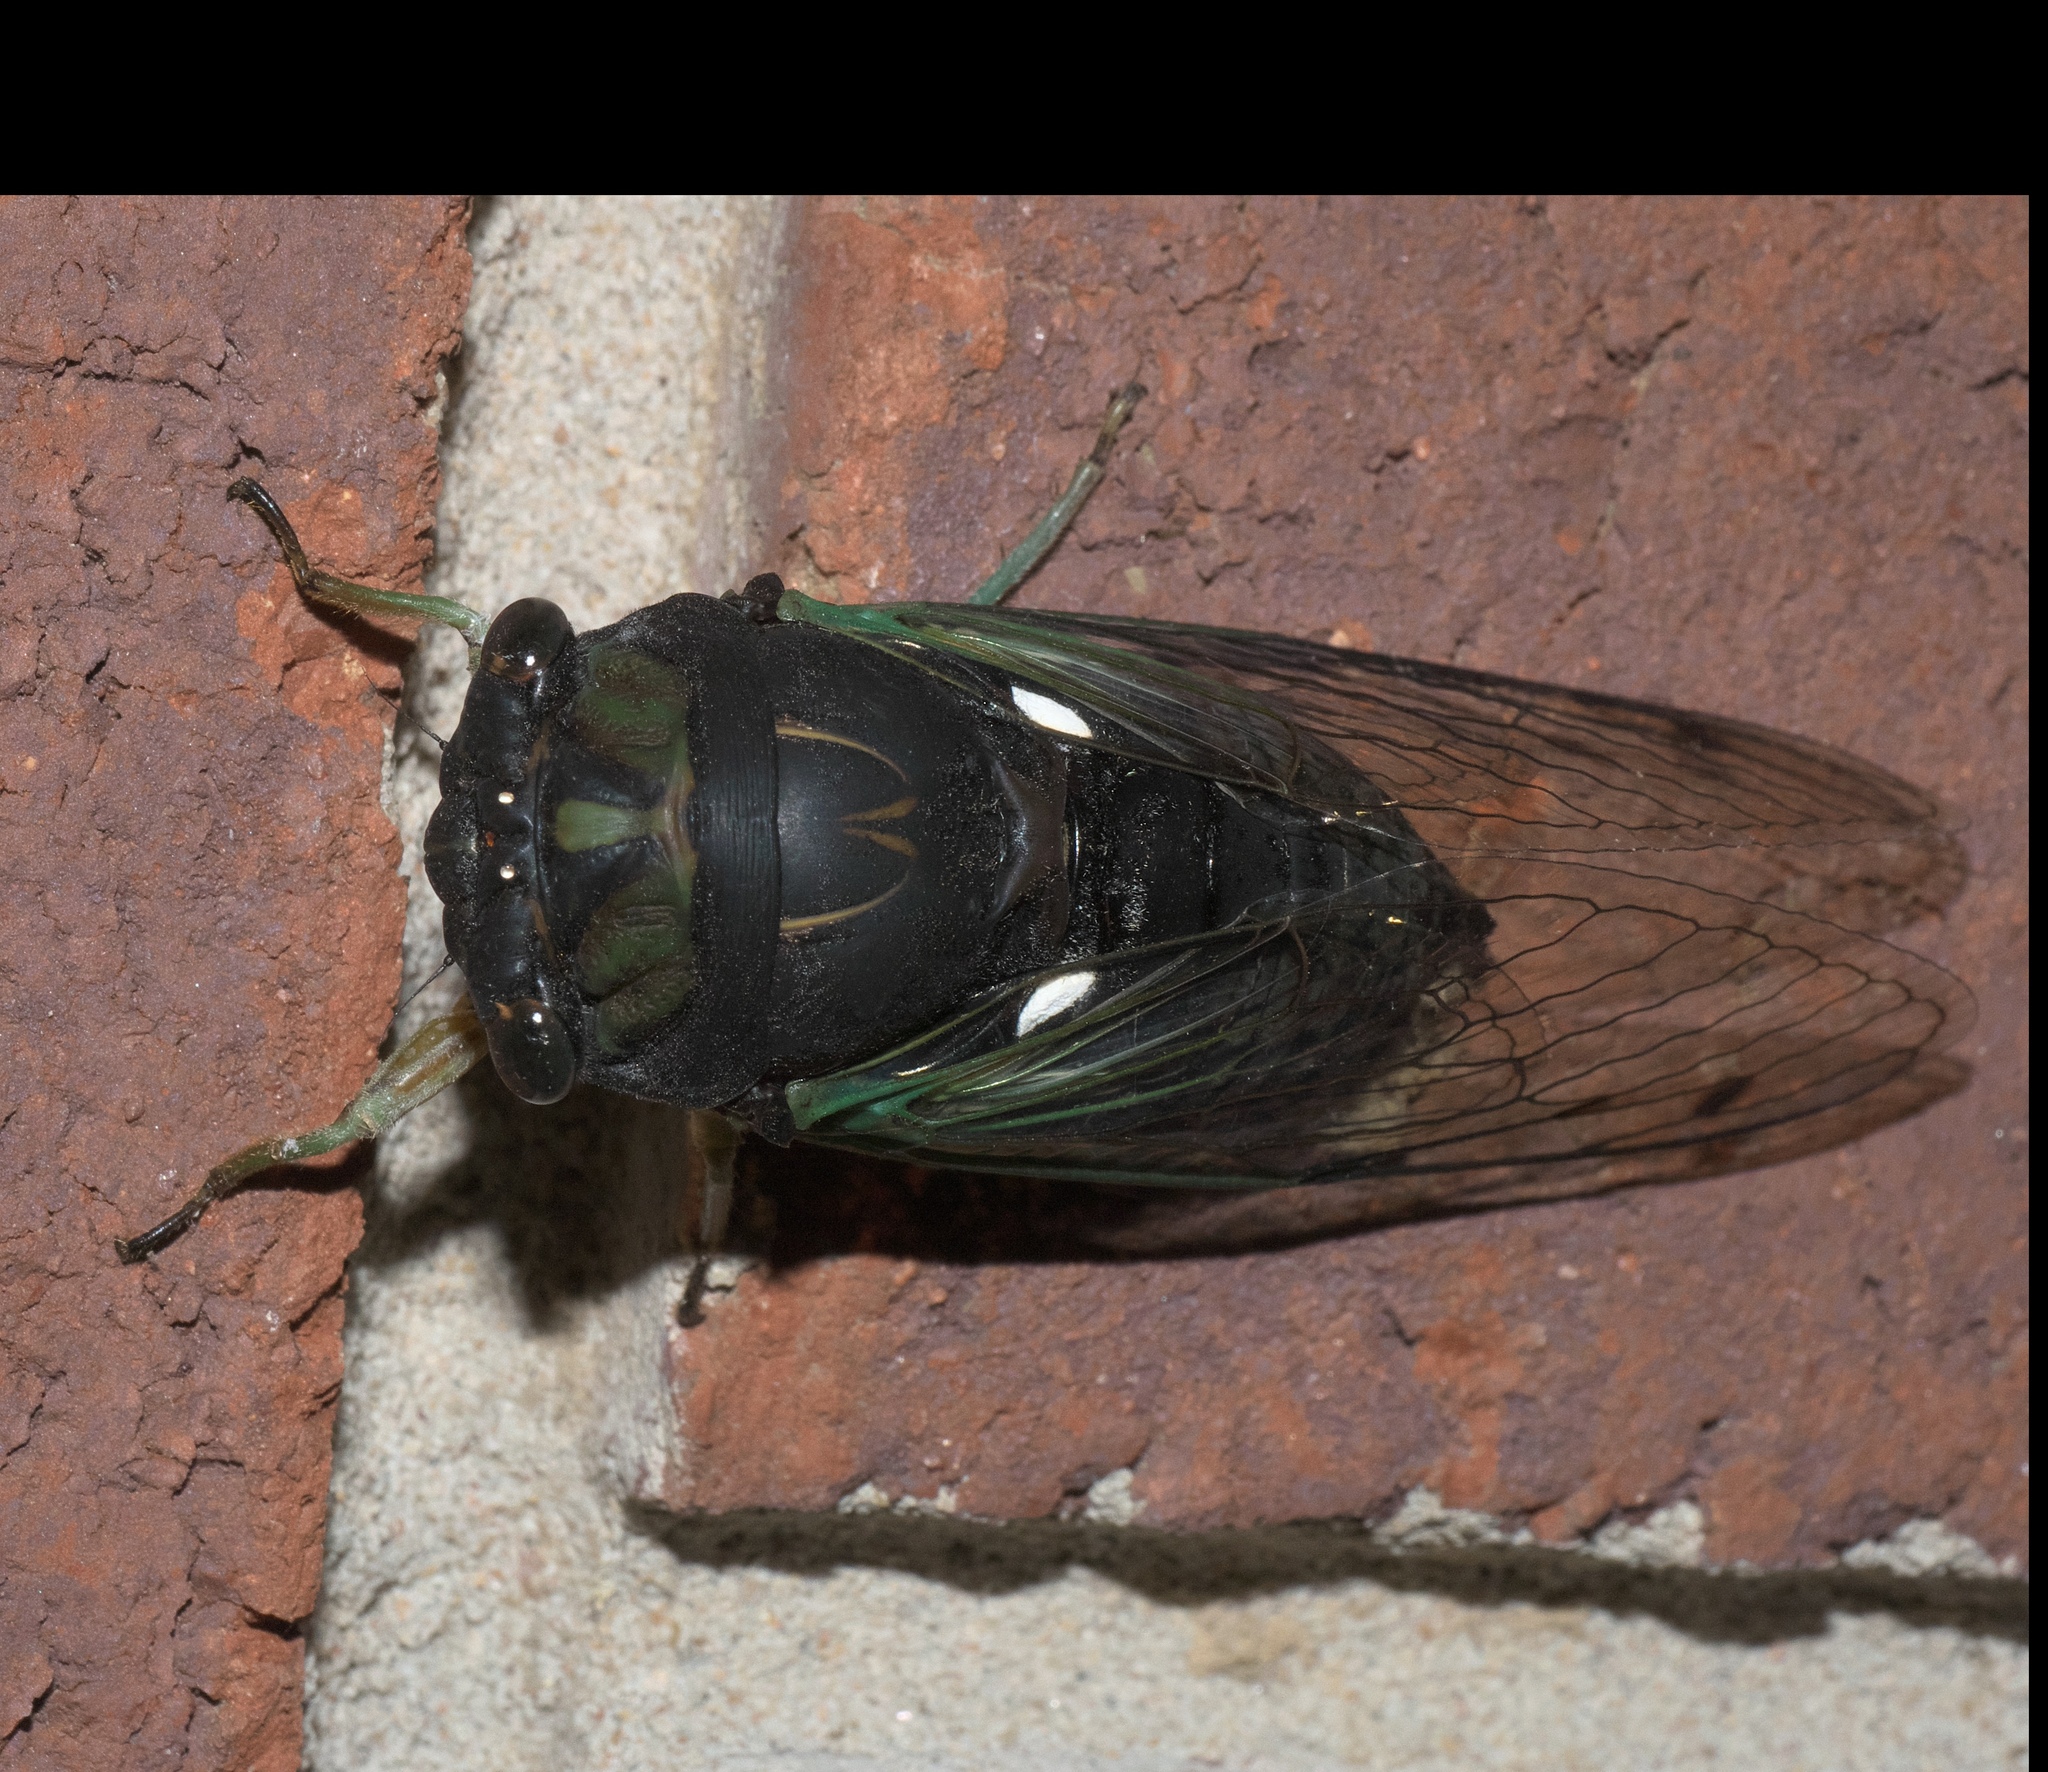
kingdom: Animalia
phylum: Arthropoda
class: Insecta
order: Hemiptera
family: Cicadidae
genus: Neotibicen
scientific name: Neotibicen tibicen
